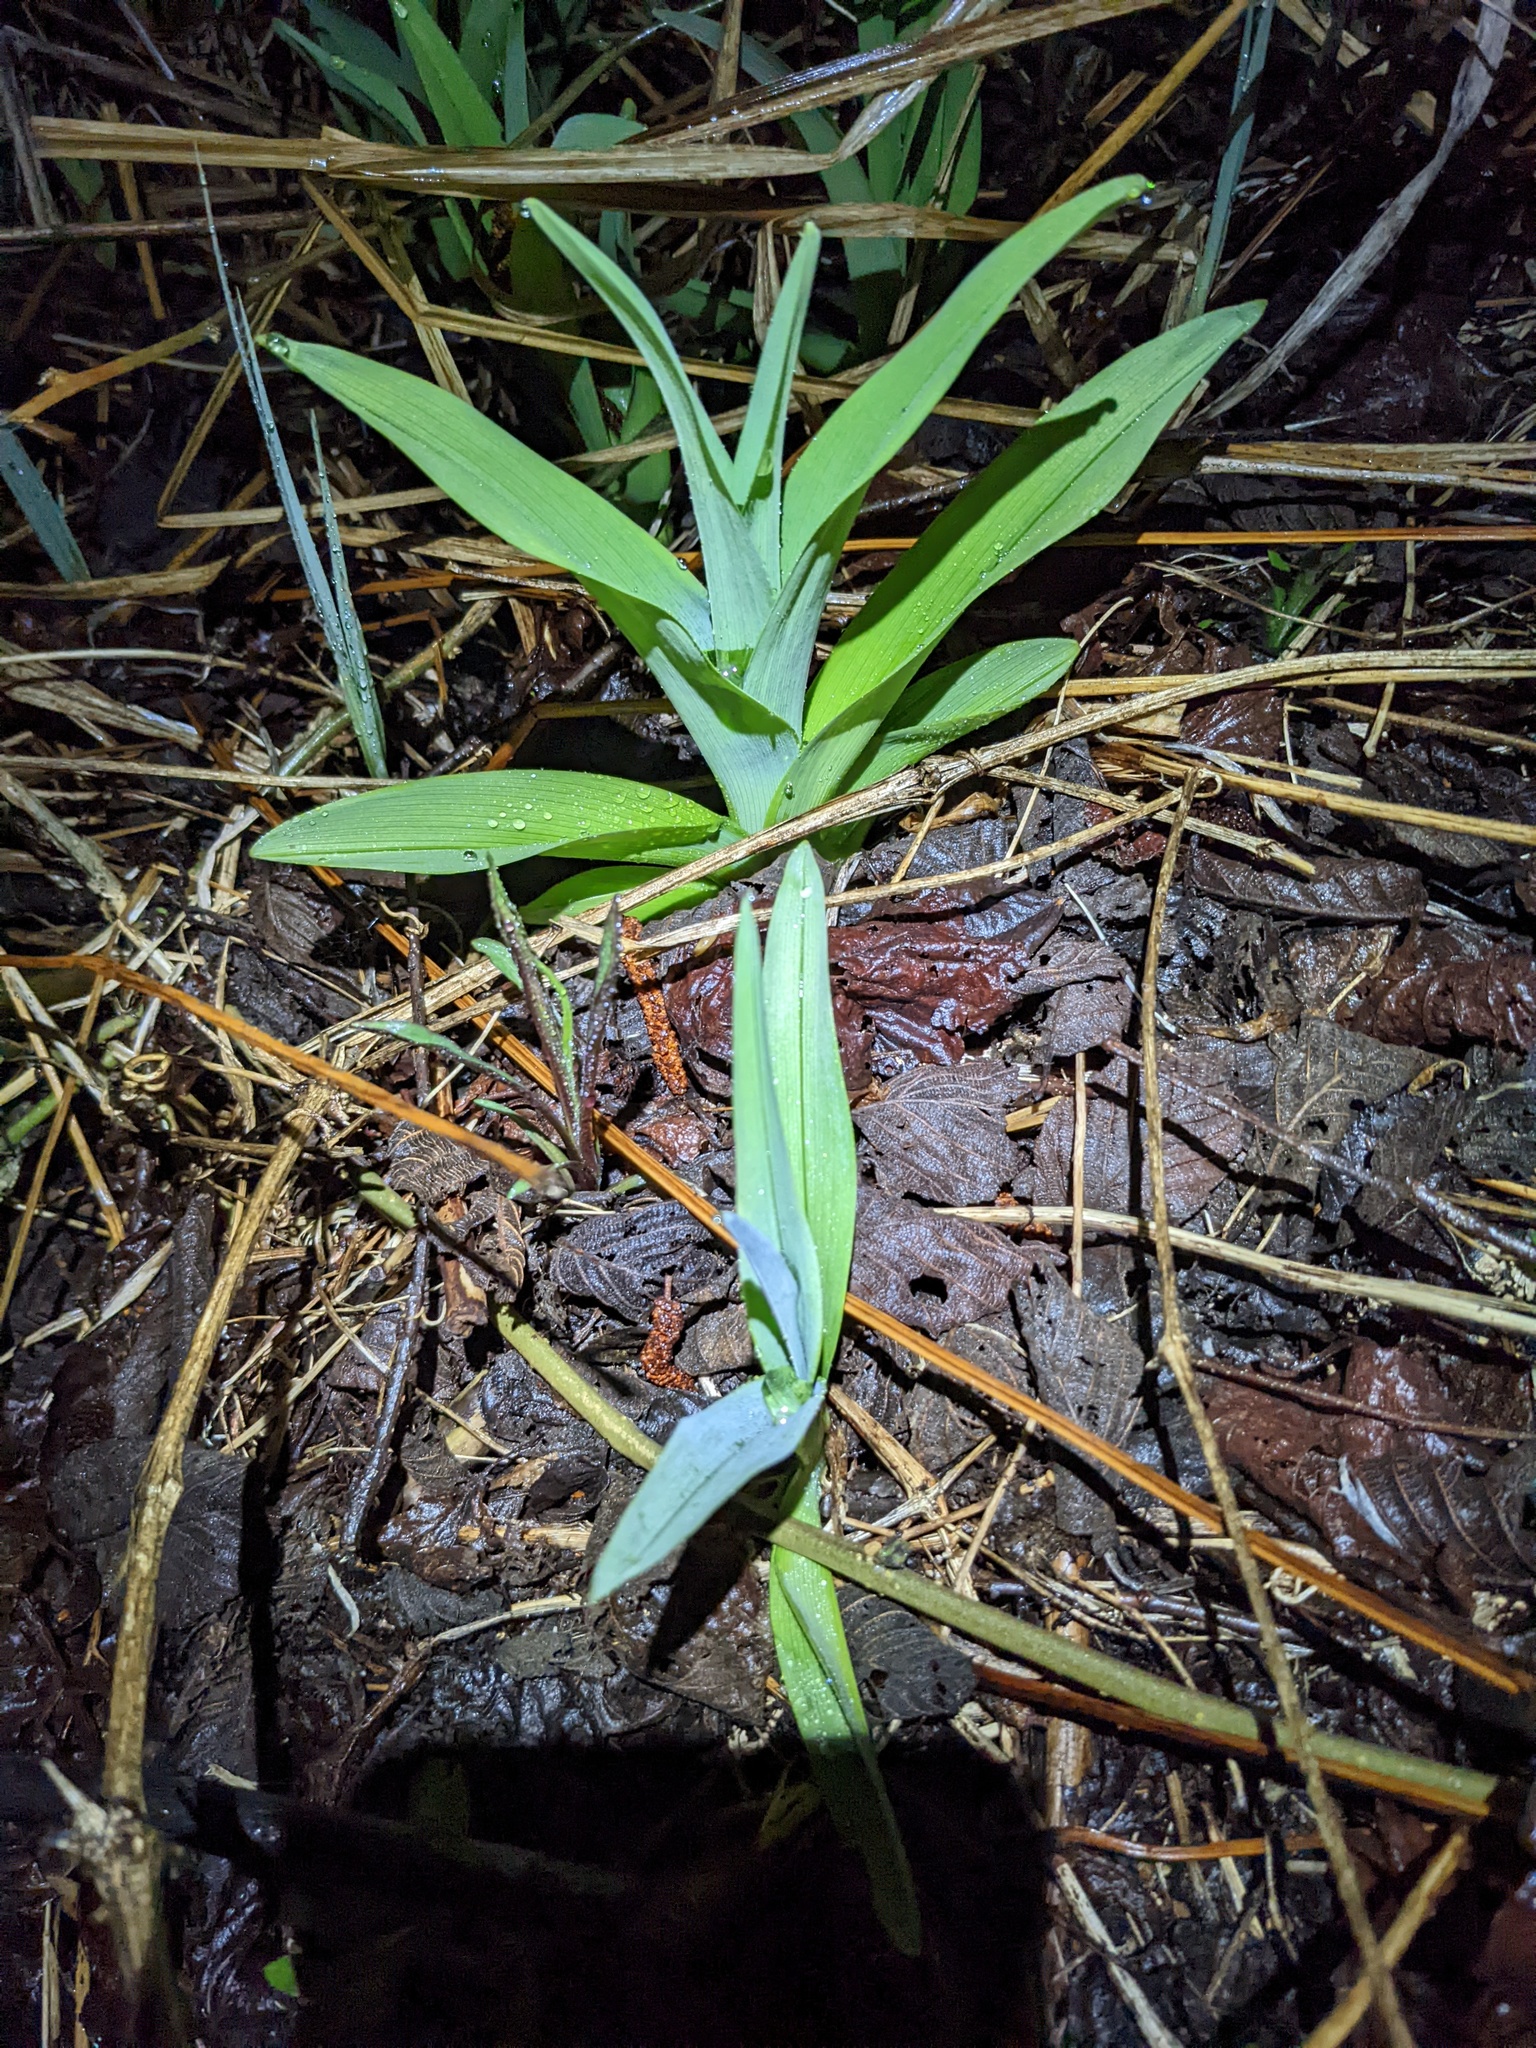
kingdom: Plantae
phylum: Tracheophyta
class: Liliopsida
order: Asparagales
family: Asphodelaceae
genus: Hemerocallis
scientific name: Hemerocallis fulva
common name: Orange day-lily
